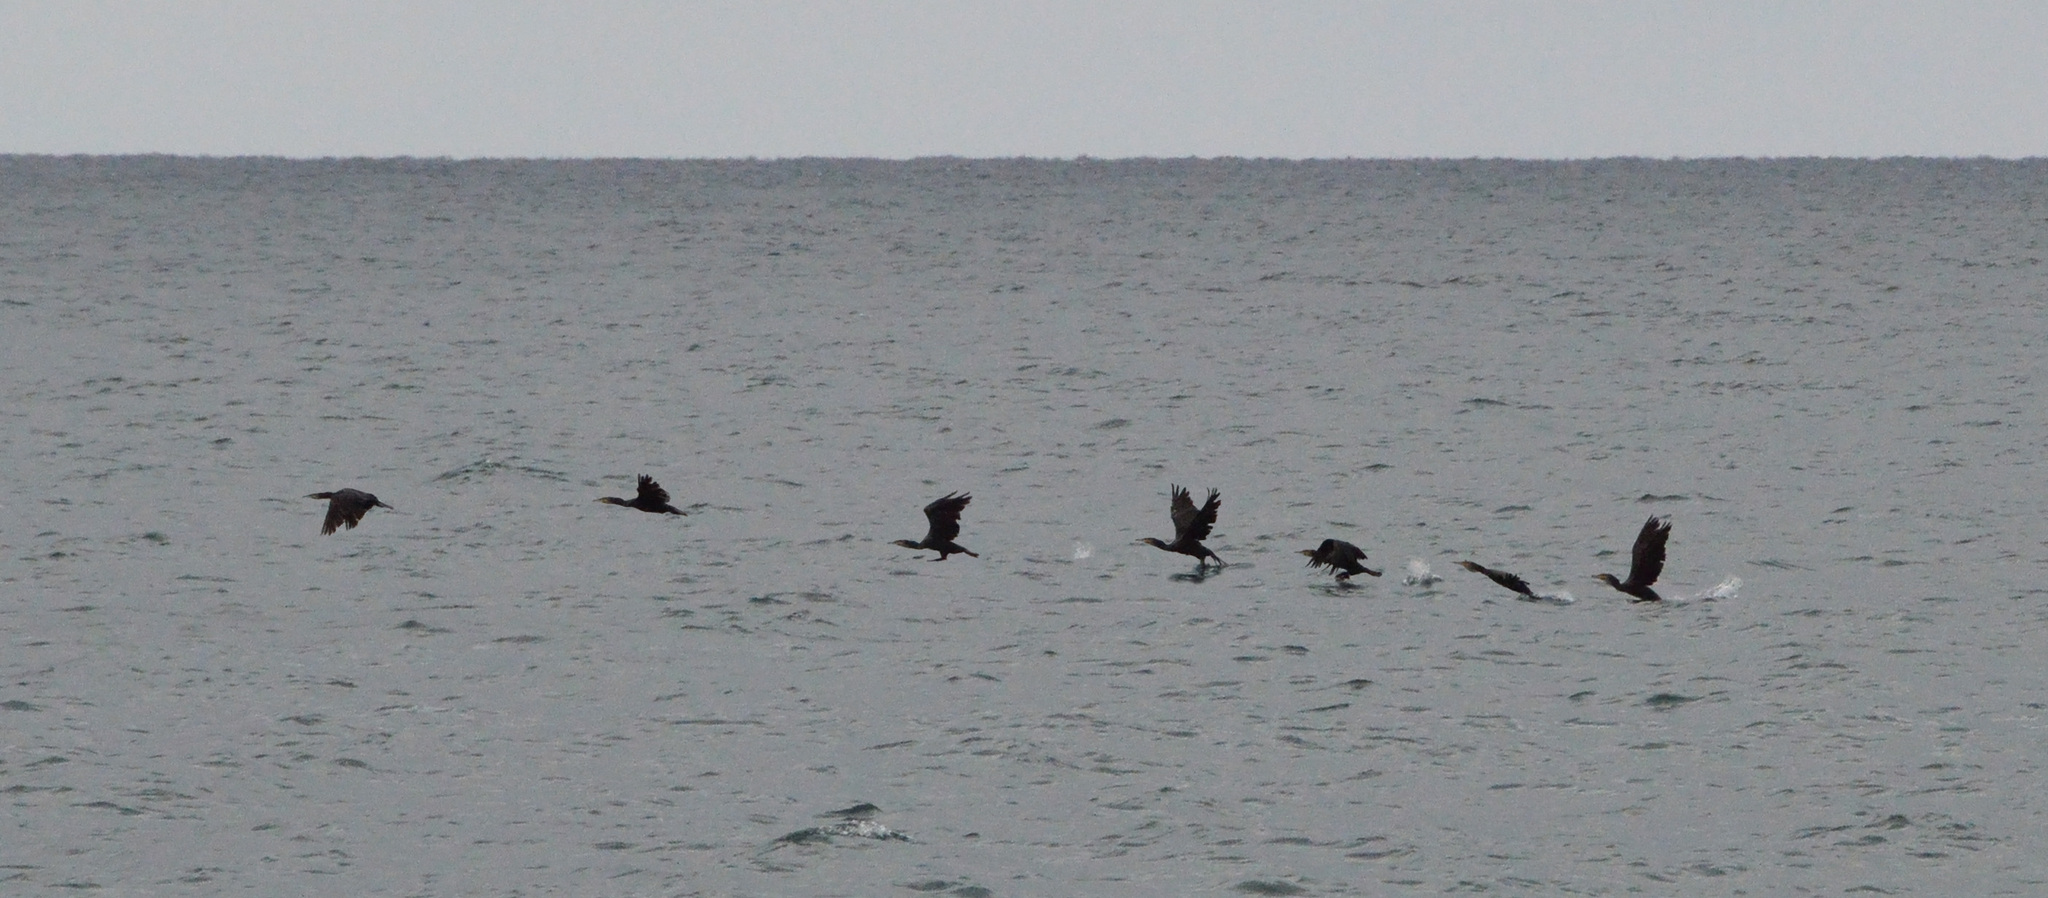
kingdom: Animalia
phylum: Chordata
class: Aves
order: Suliformes
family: Phalacrocoracidae
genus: Phalacrocorax
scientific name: Phalacrocorax carbo
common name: Great cormorant
